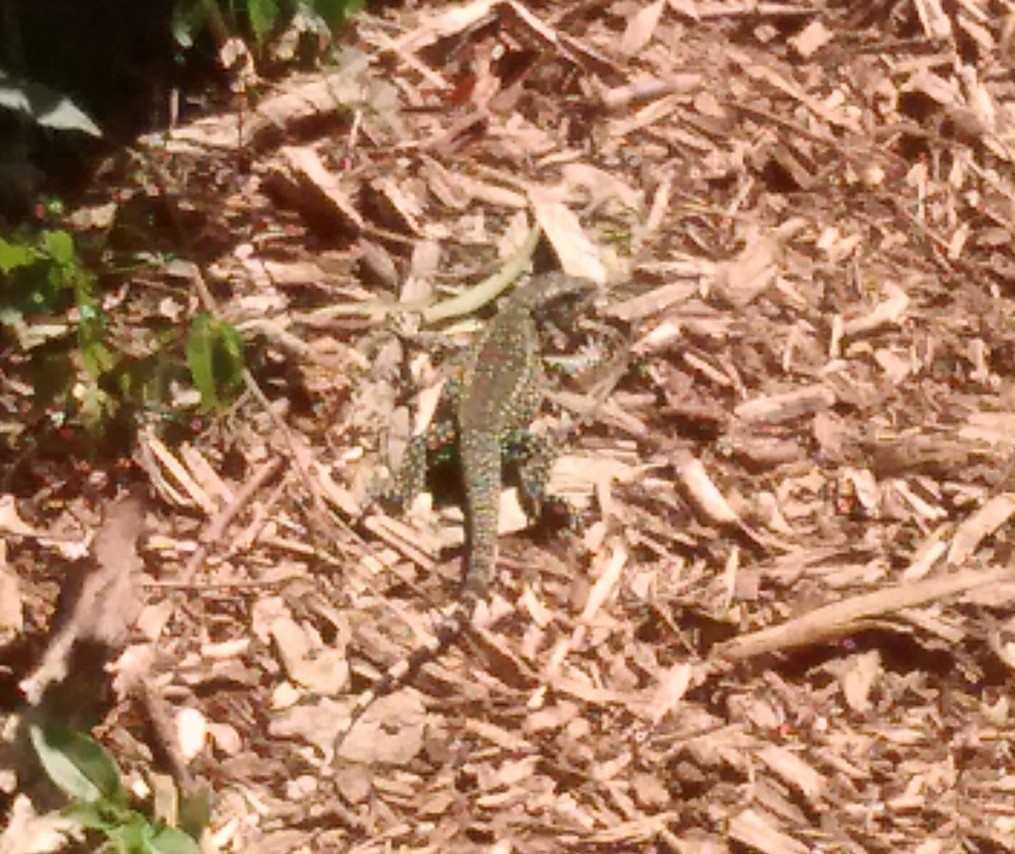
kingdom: Animalia
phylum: Chordata
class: Squamata
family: Teiidae
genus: Salvator
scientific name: Salvator merianae
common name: Argentine black and white tegu
